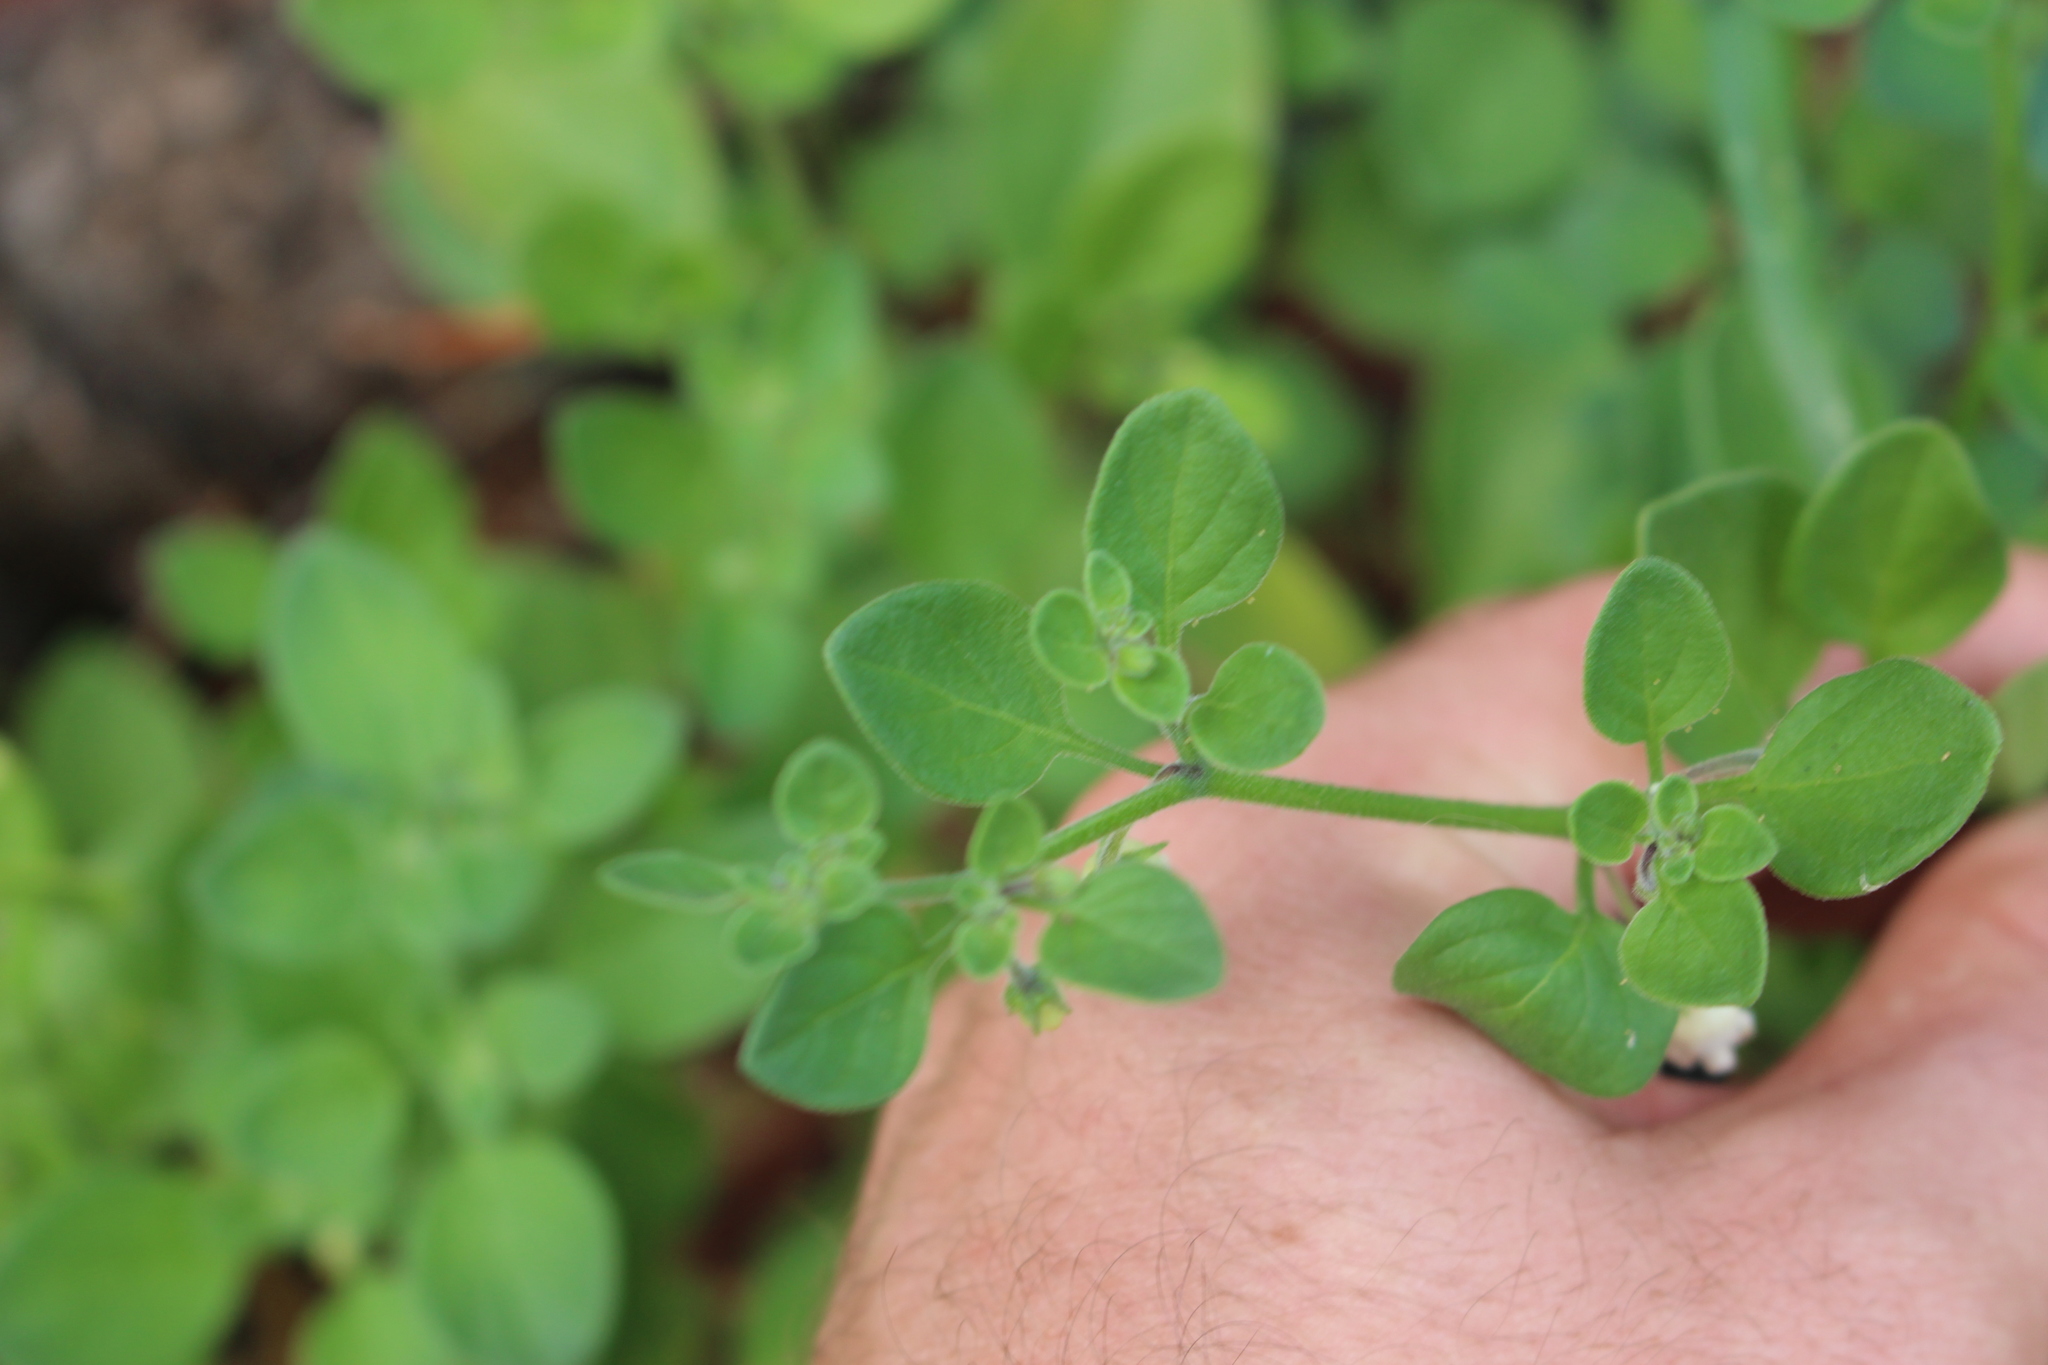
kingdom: Plantae
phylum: Tracheophyta
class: Magnoliopsida
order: Solanales
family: Solanaceae
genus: Salpichroa
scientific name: Salpichroa origanifolia
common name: Lily-of-the-valley-vine
